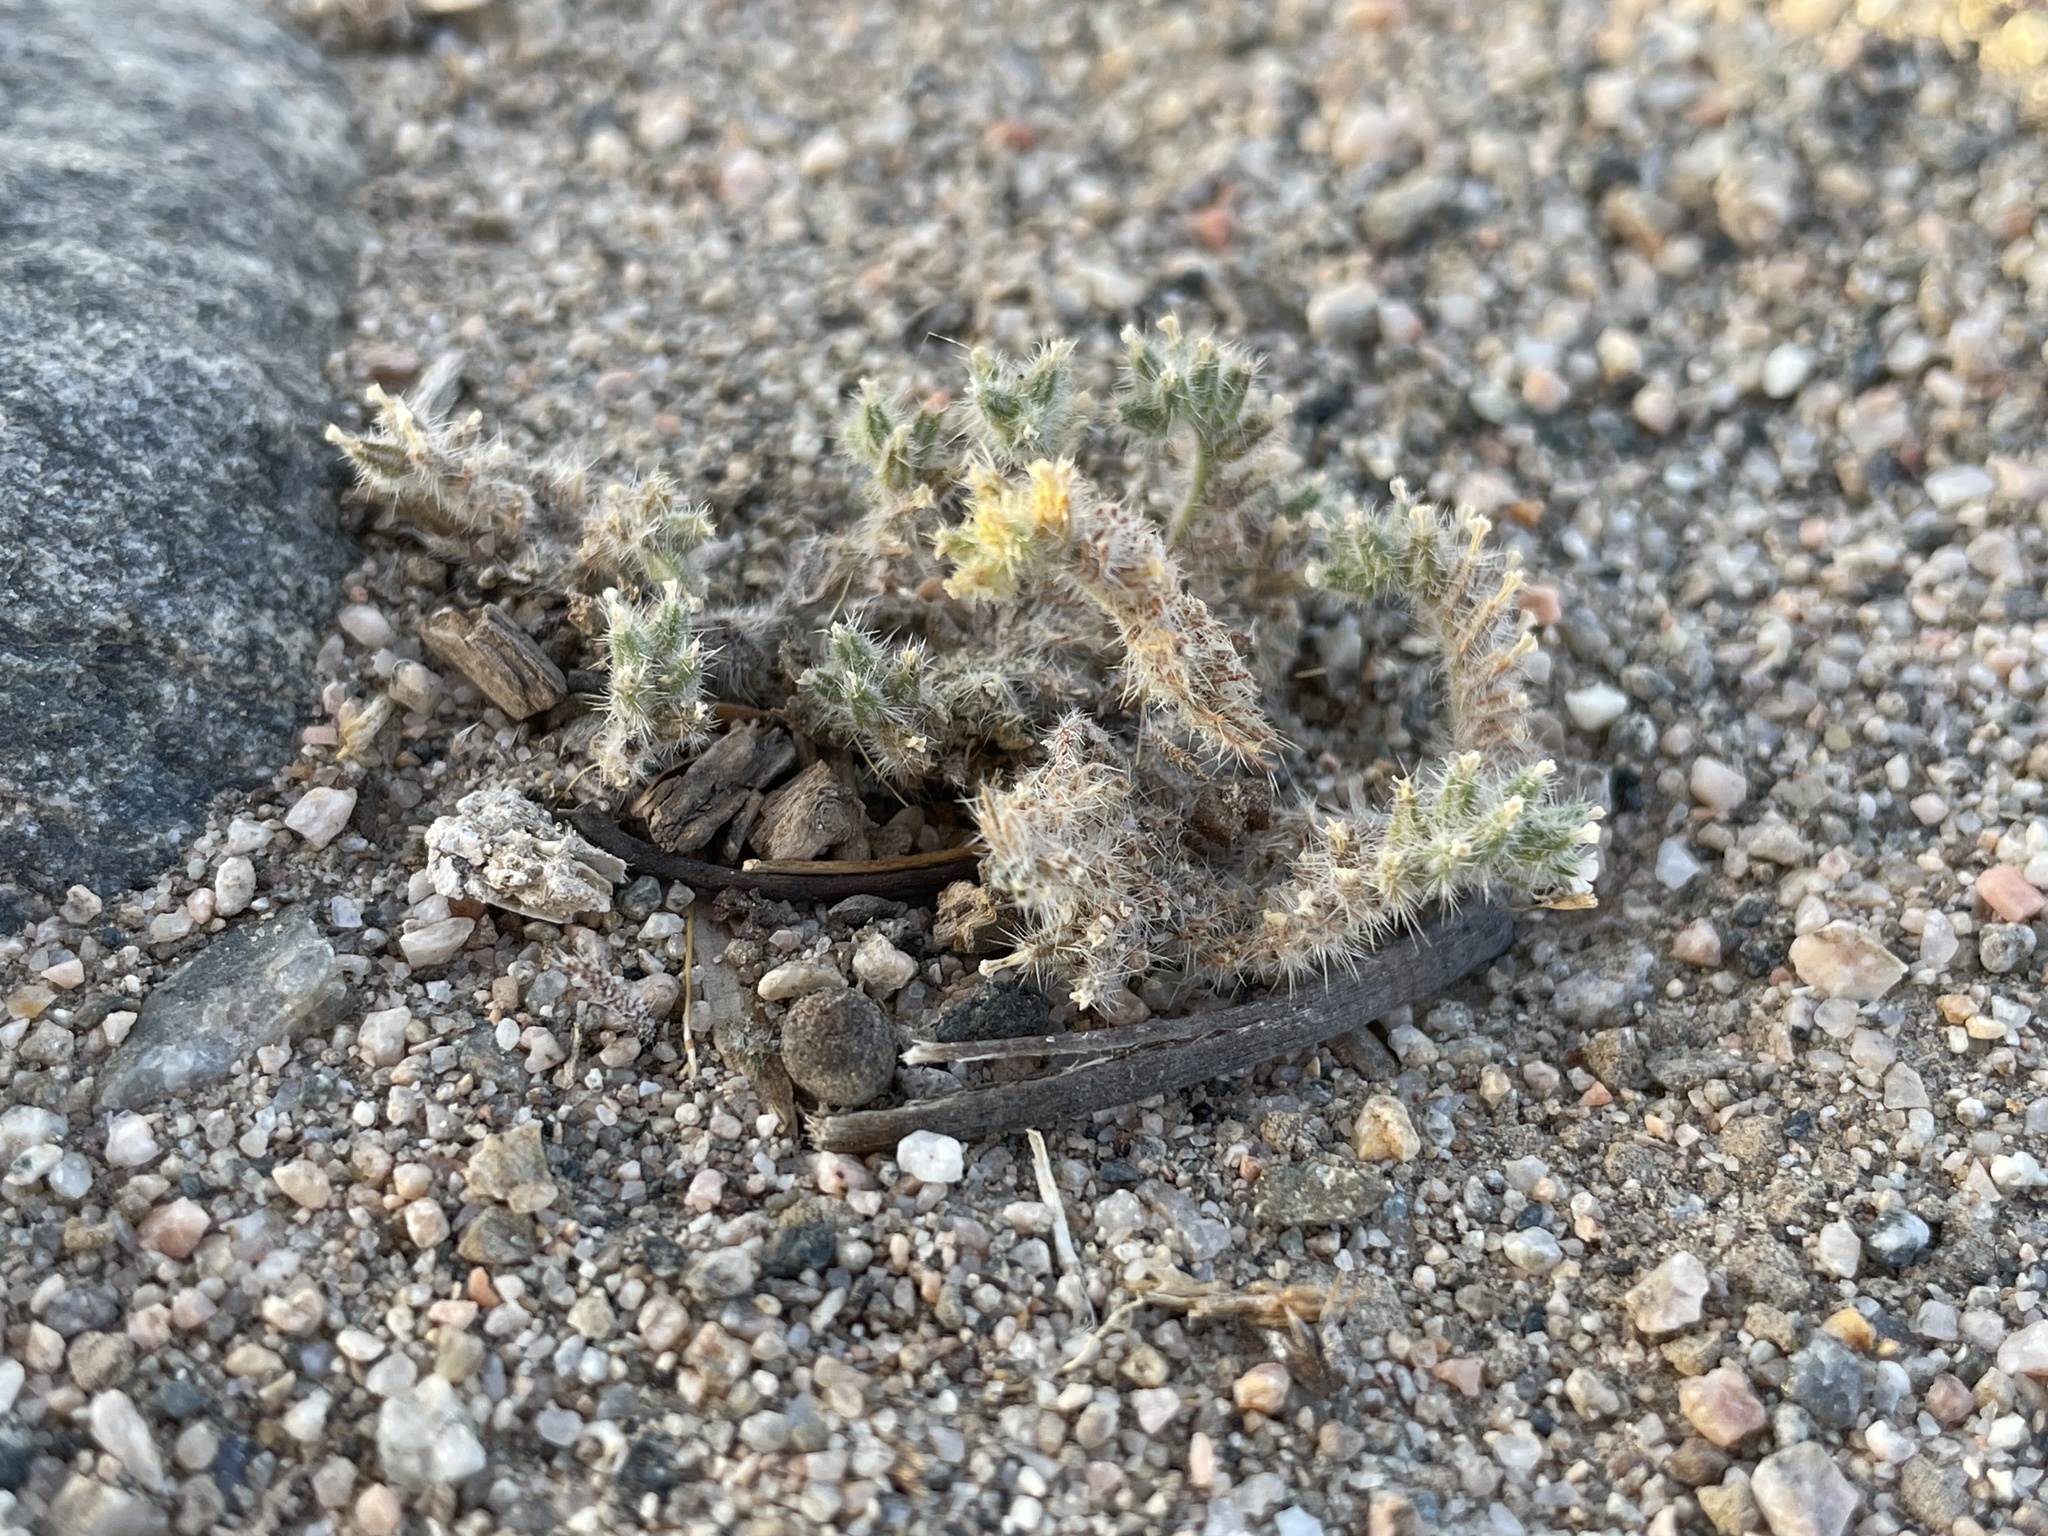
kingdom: Plantae
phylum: Tracheophyta
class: Magnoliopsida
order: Boraginales
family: Boraginaceae
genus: Johnstonella
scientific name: Johnstonella angustifolia
